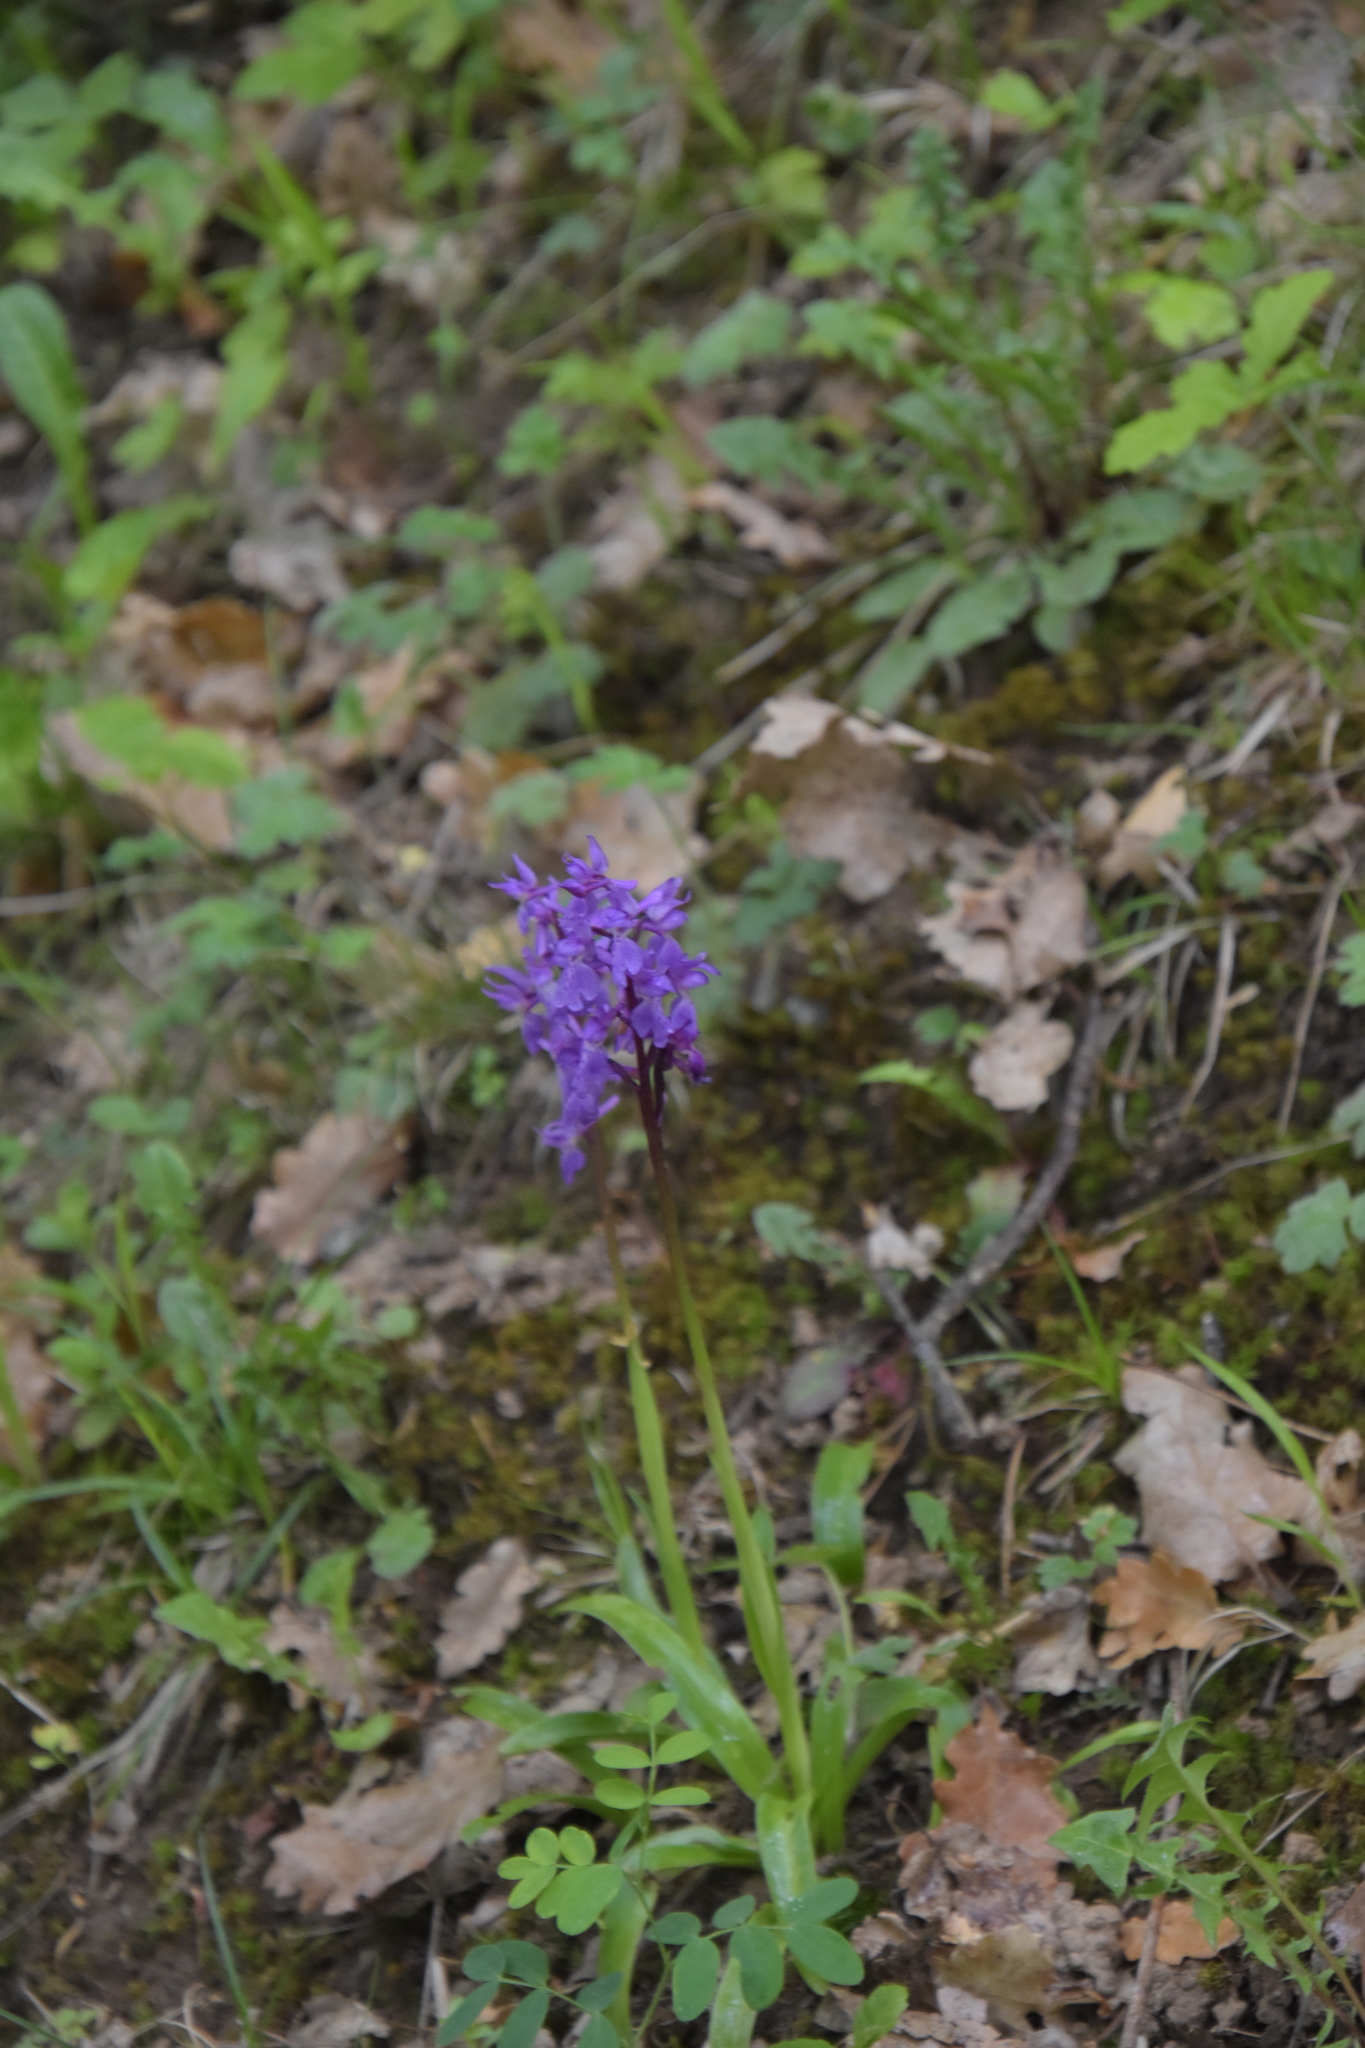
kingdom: Plantae
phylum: Tracheophyta
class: Liliopsida
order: Asparagales
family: Orchidaceae
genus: Orchis
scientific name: Orchis mascula
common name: Early-purple orchid
